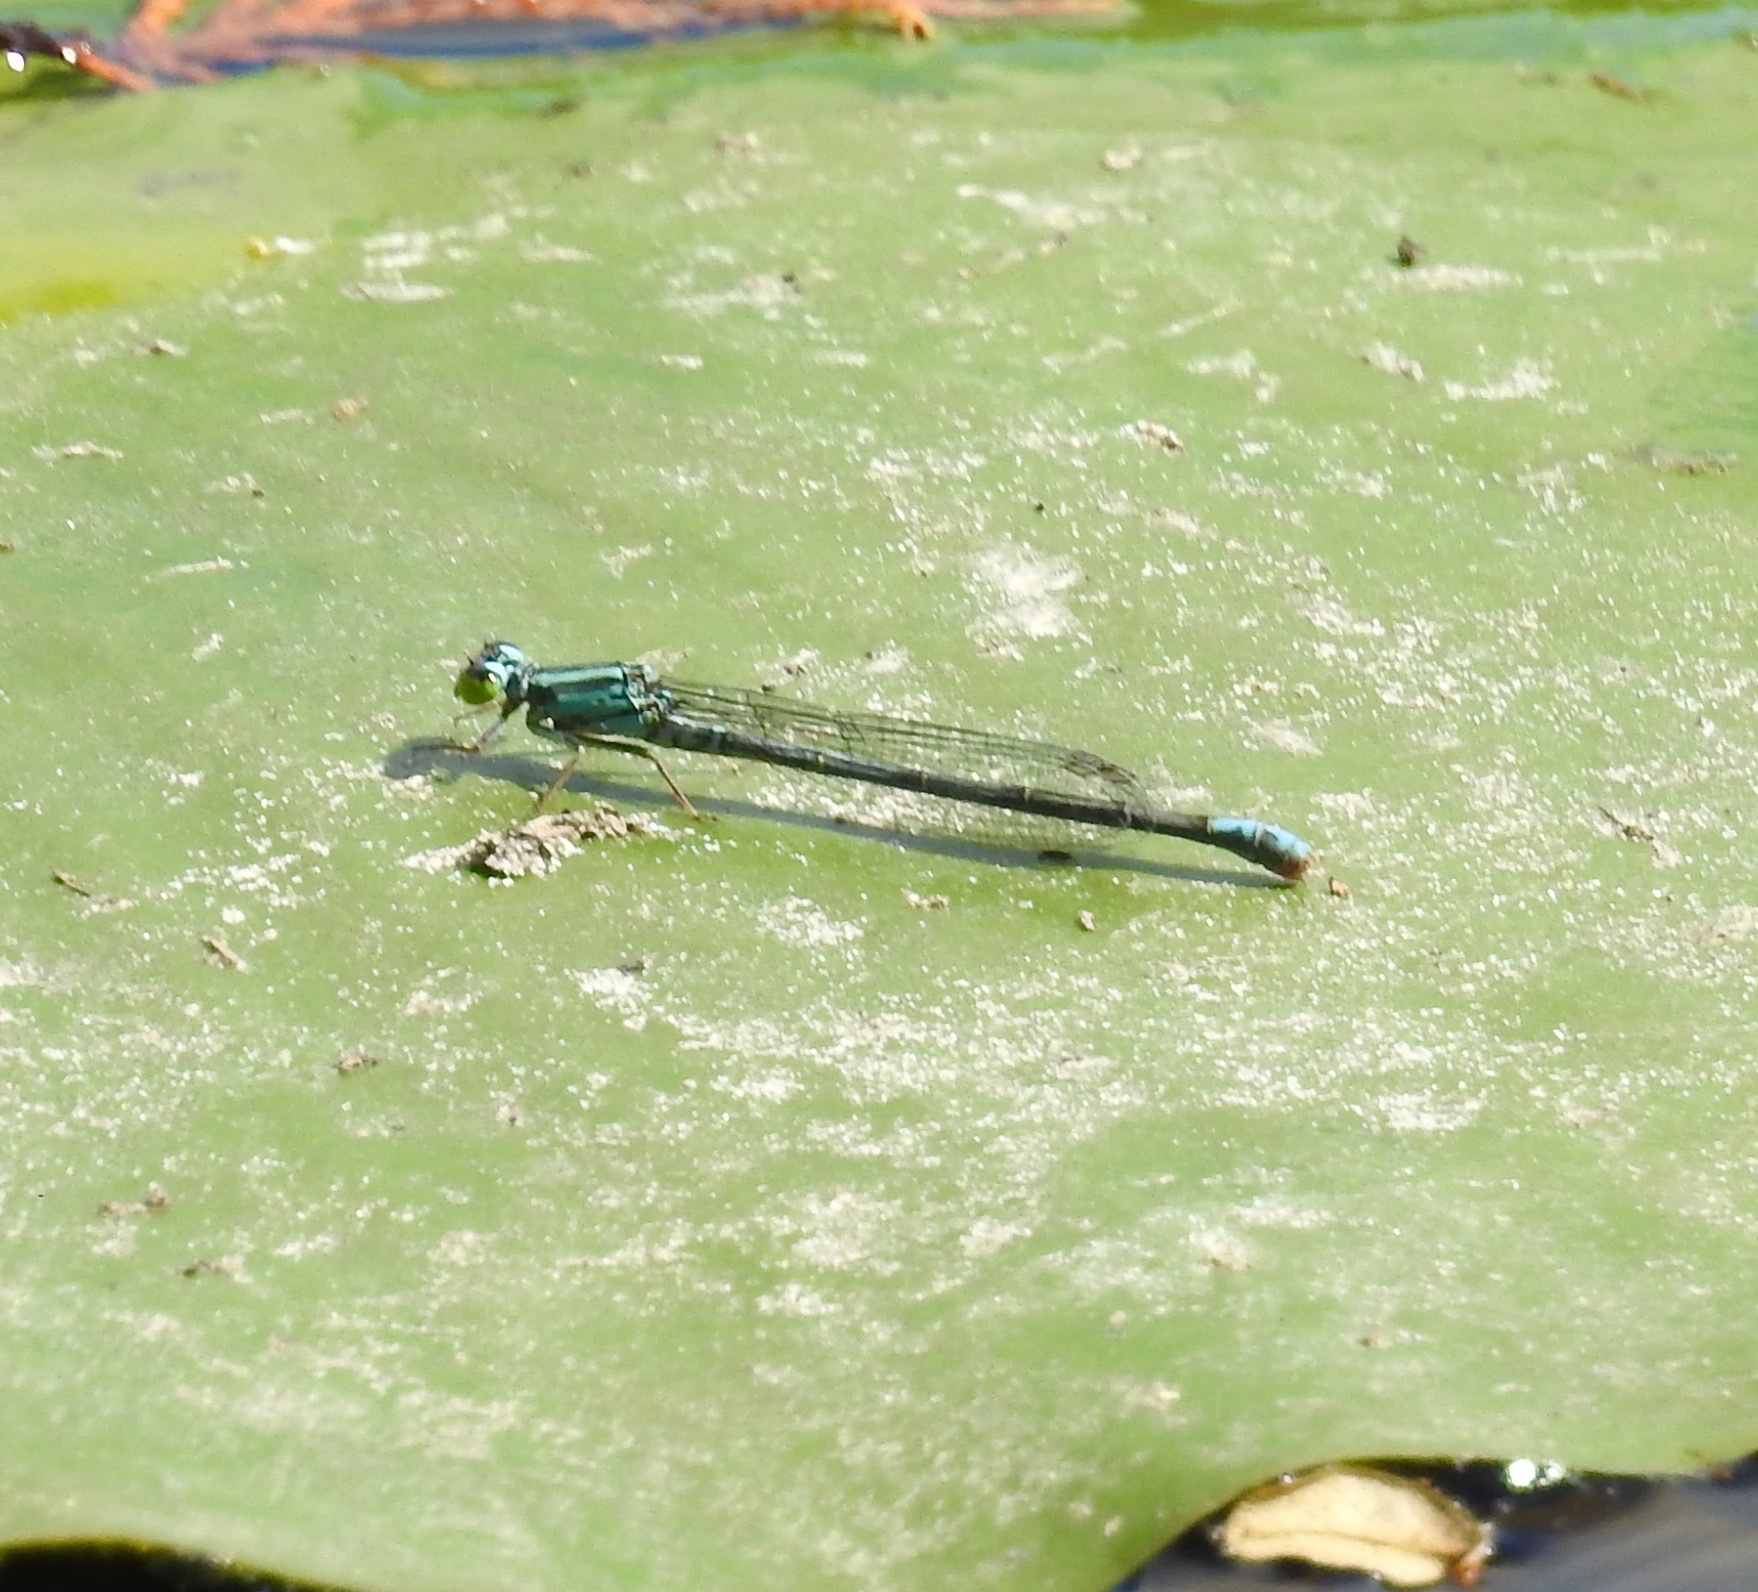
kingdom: Animalia
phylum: Arthropoda
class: Insecta
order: Odonata
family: Coenagrionidae
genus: Ischnura
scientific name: Ischnura kellicotti
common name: Lilypad forktail
